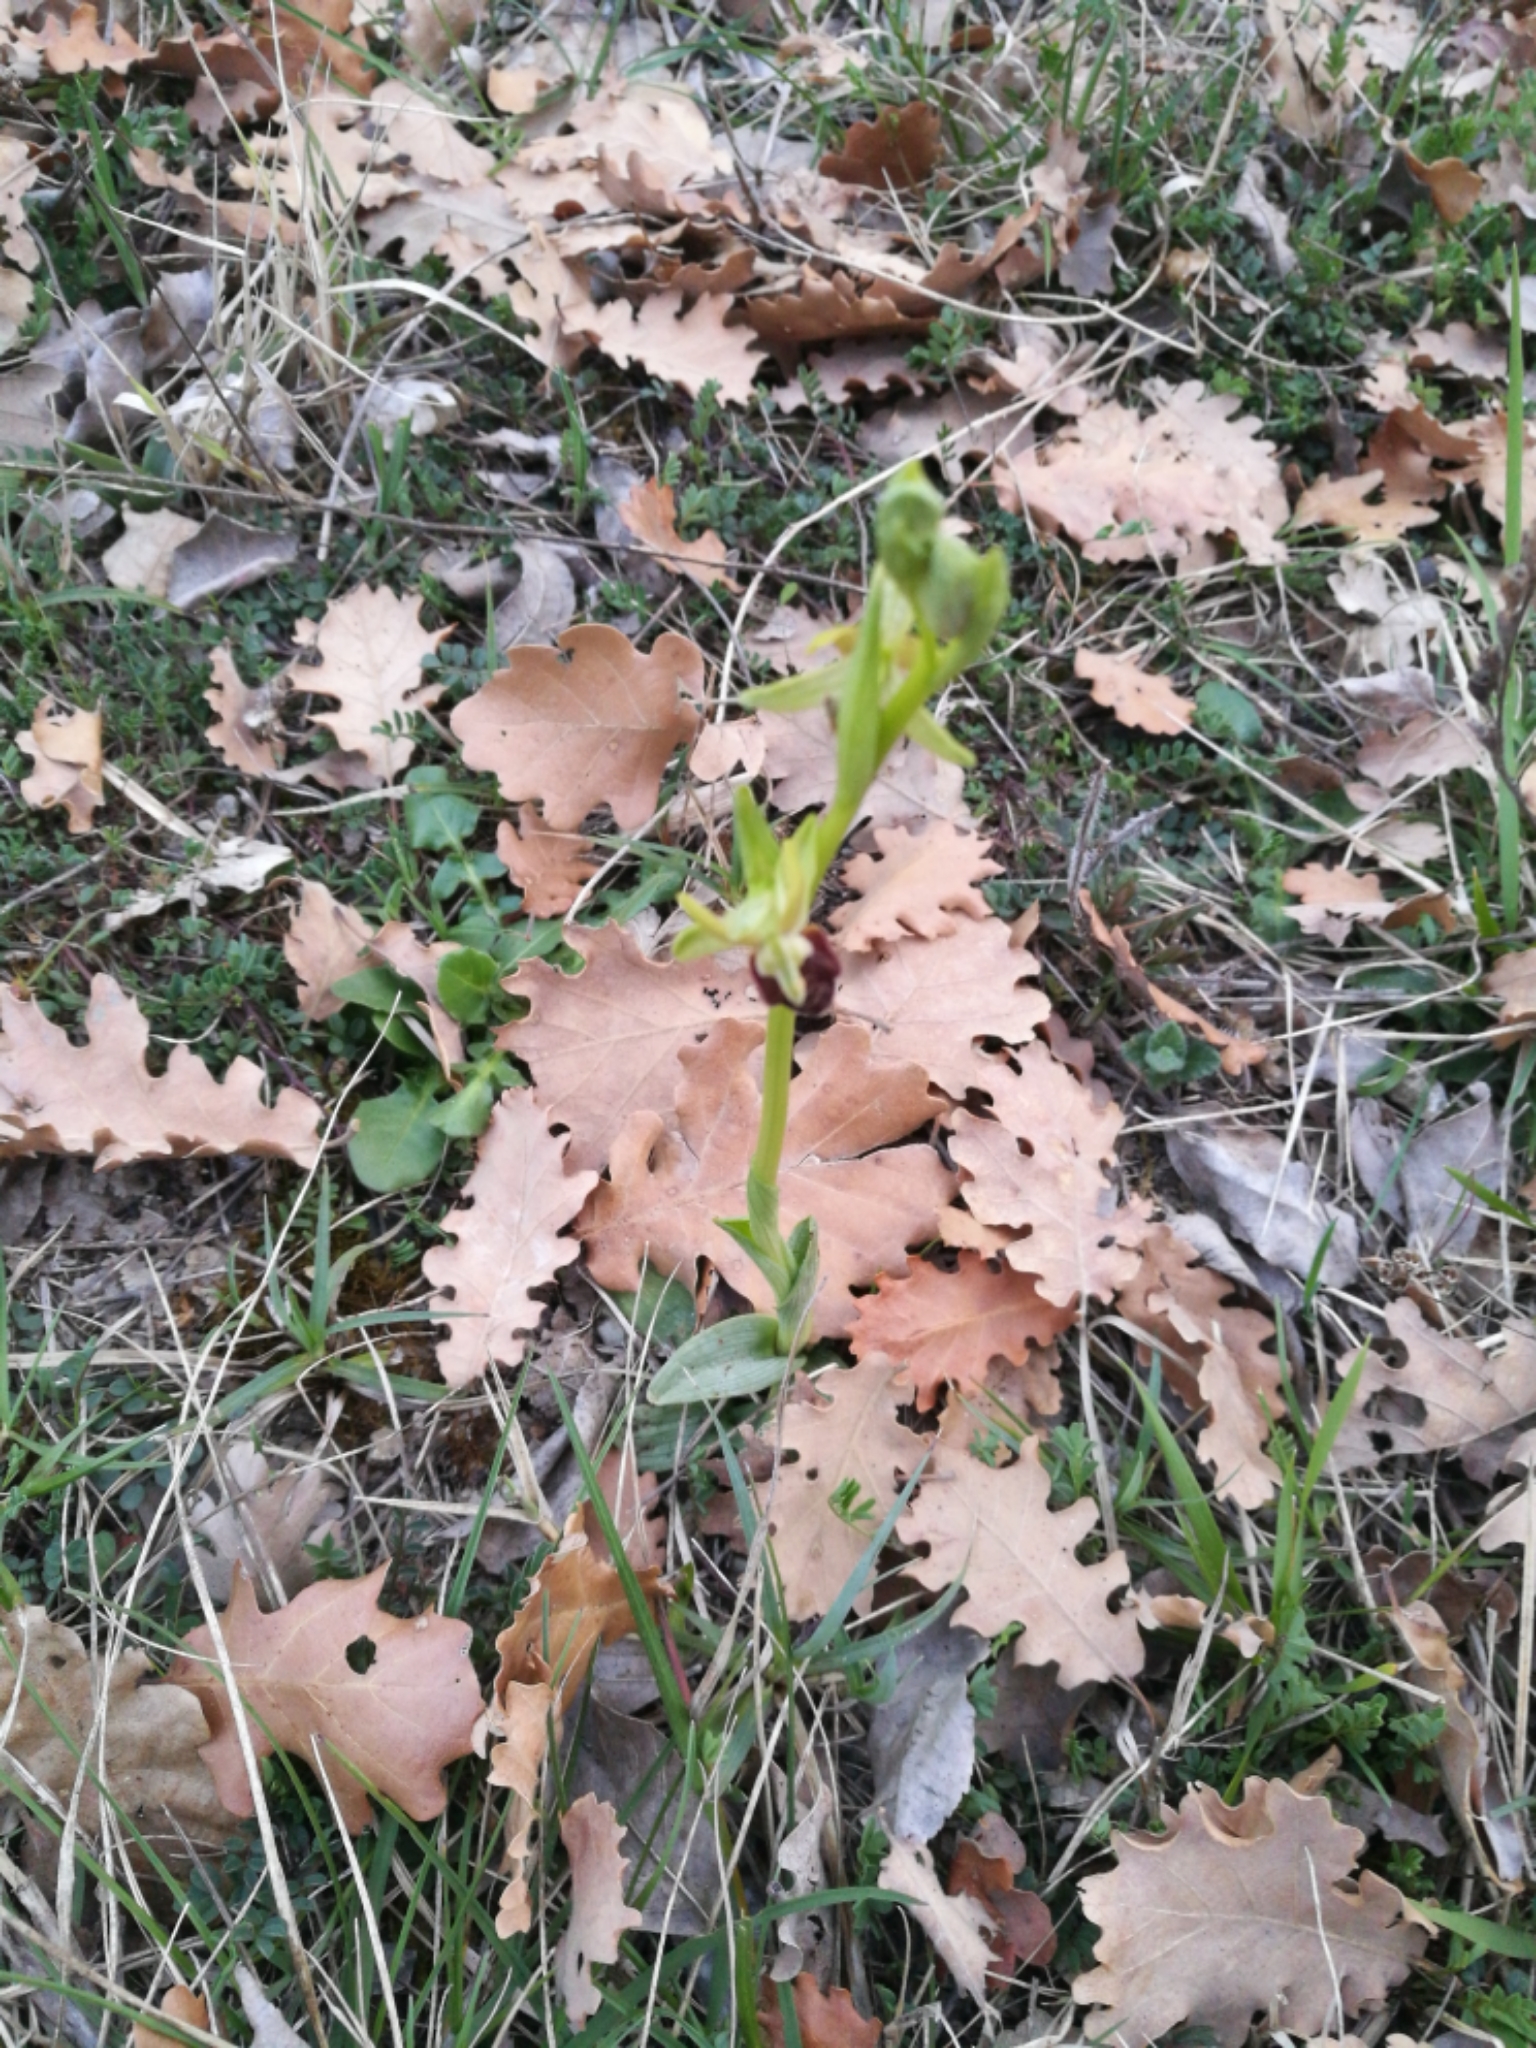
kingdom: Plantae
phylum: Tracheophyta
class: Liliopsida
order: Asparagales
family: Orchidaceae
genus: Ophrys
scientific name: Ophrys sphegodes
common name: Early spider-orchid
